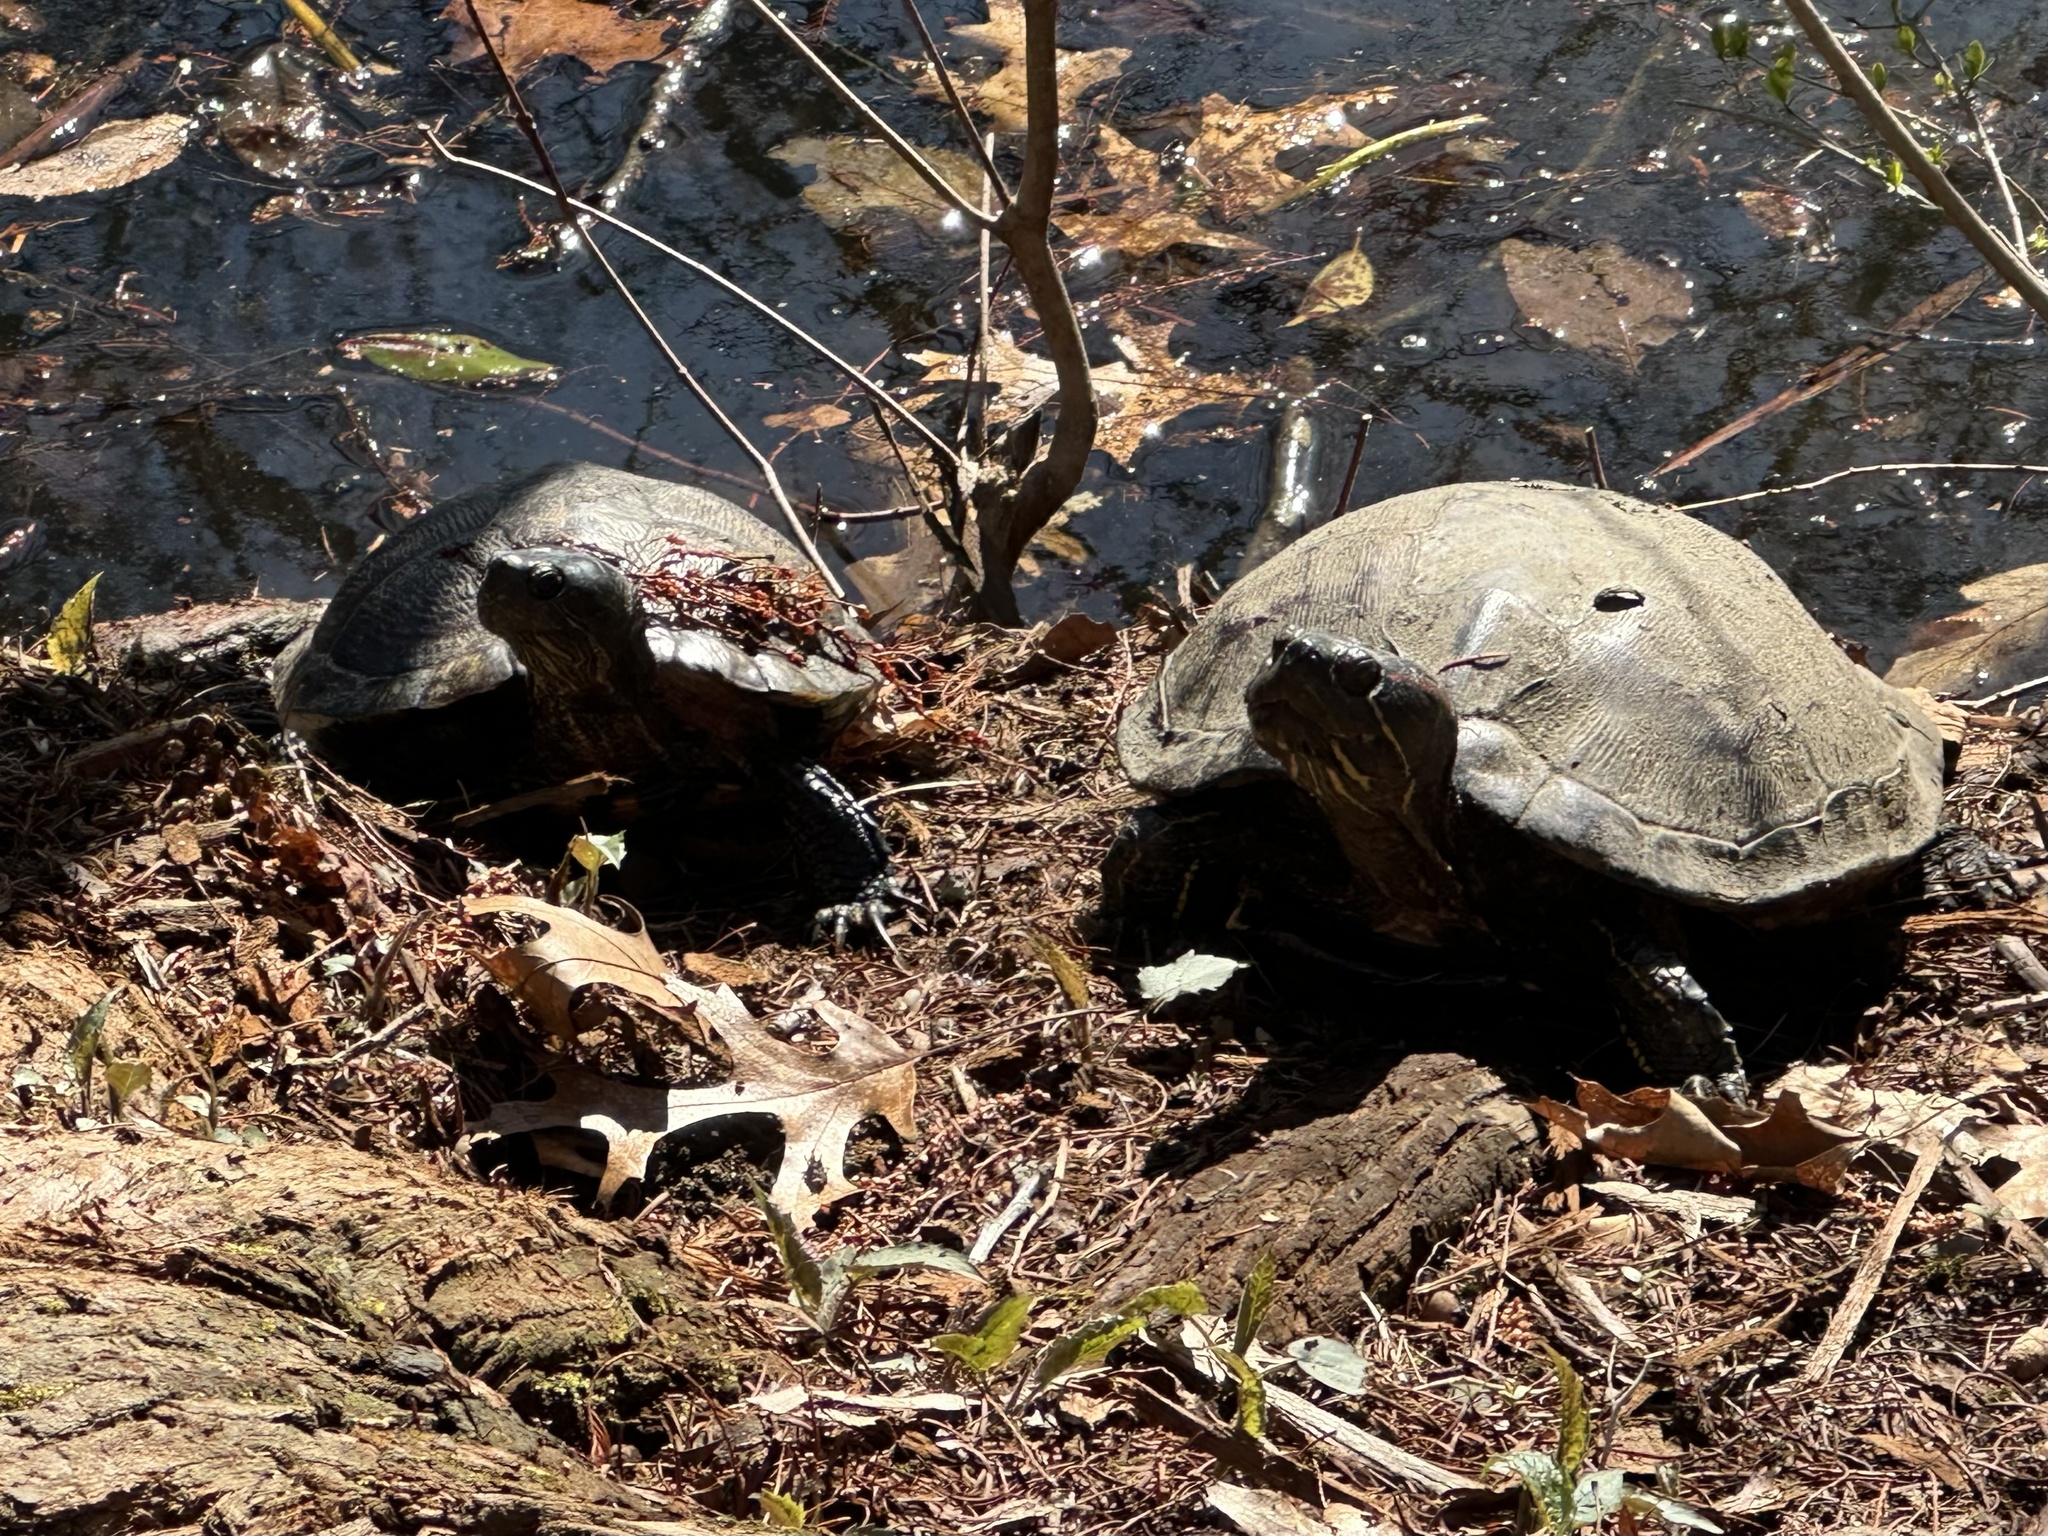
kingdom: Animalia
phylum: Chordata
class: Testudines
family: Emydidae
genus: Trachemys
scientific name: Trachemys scripta
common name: Slider
